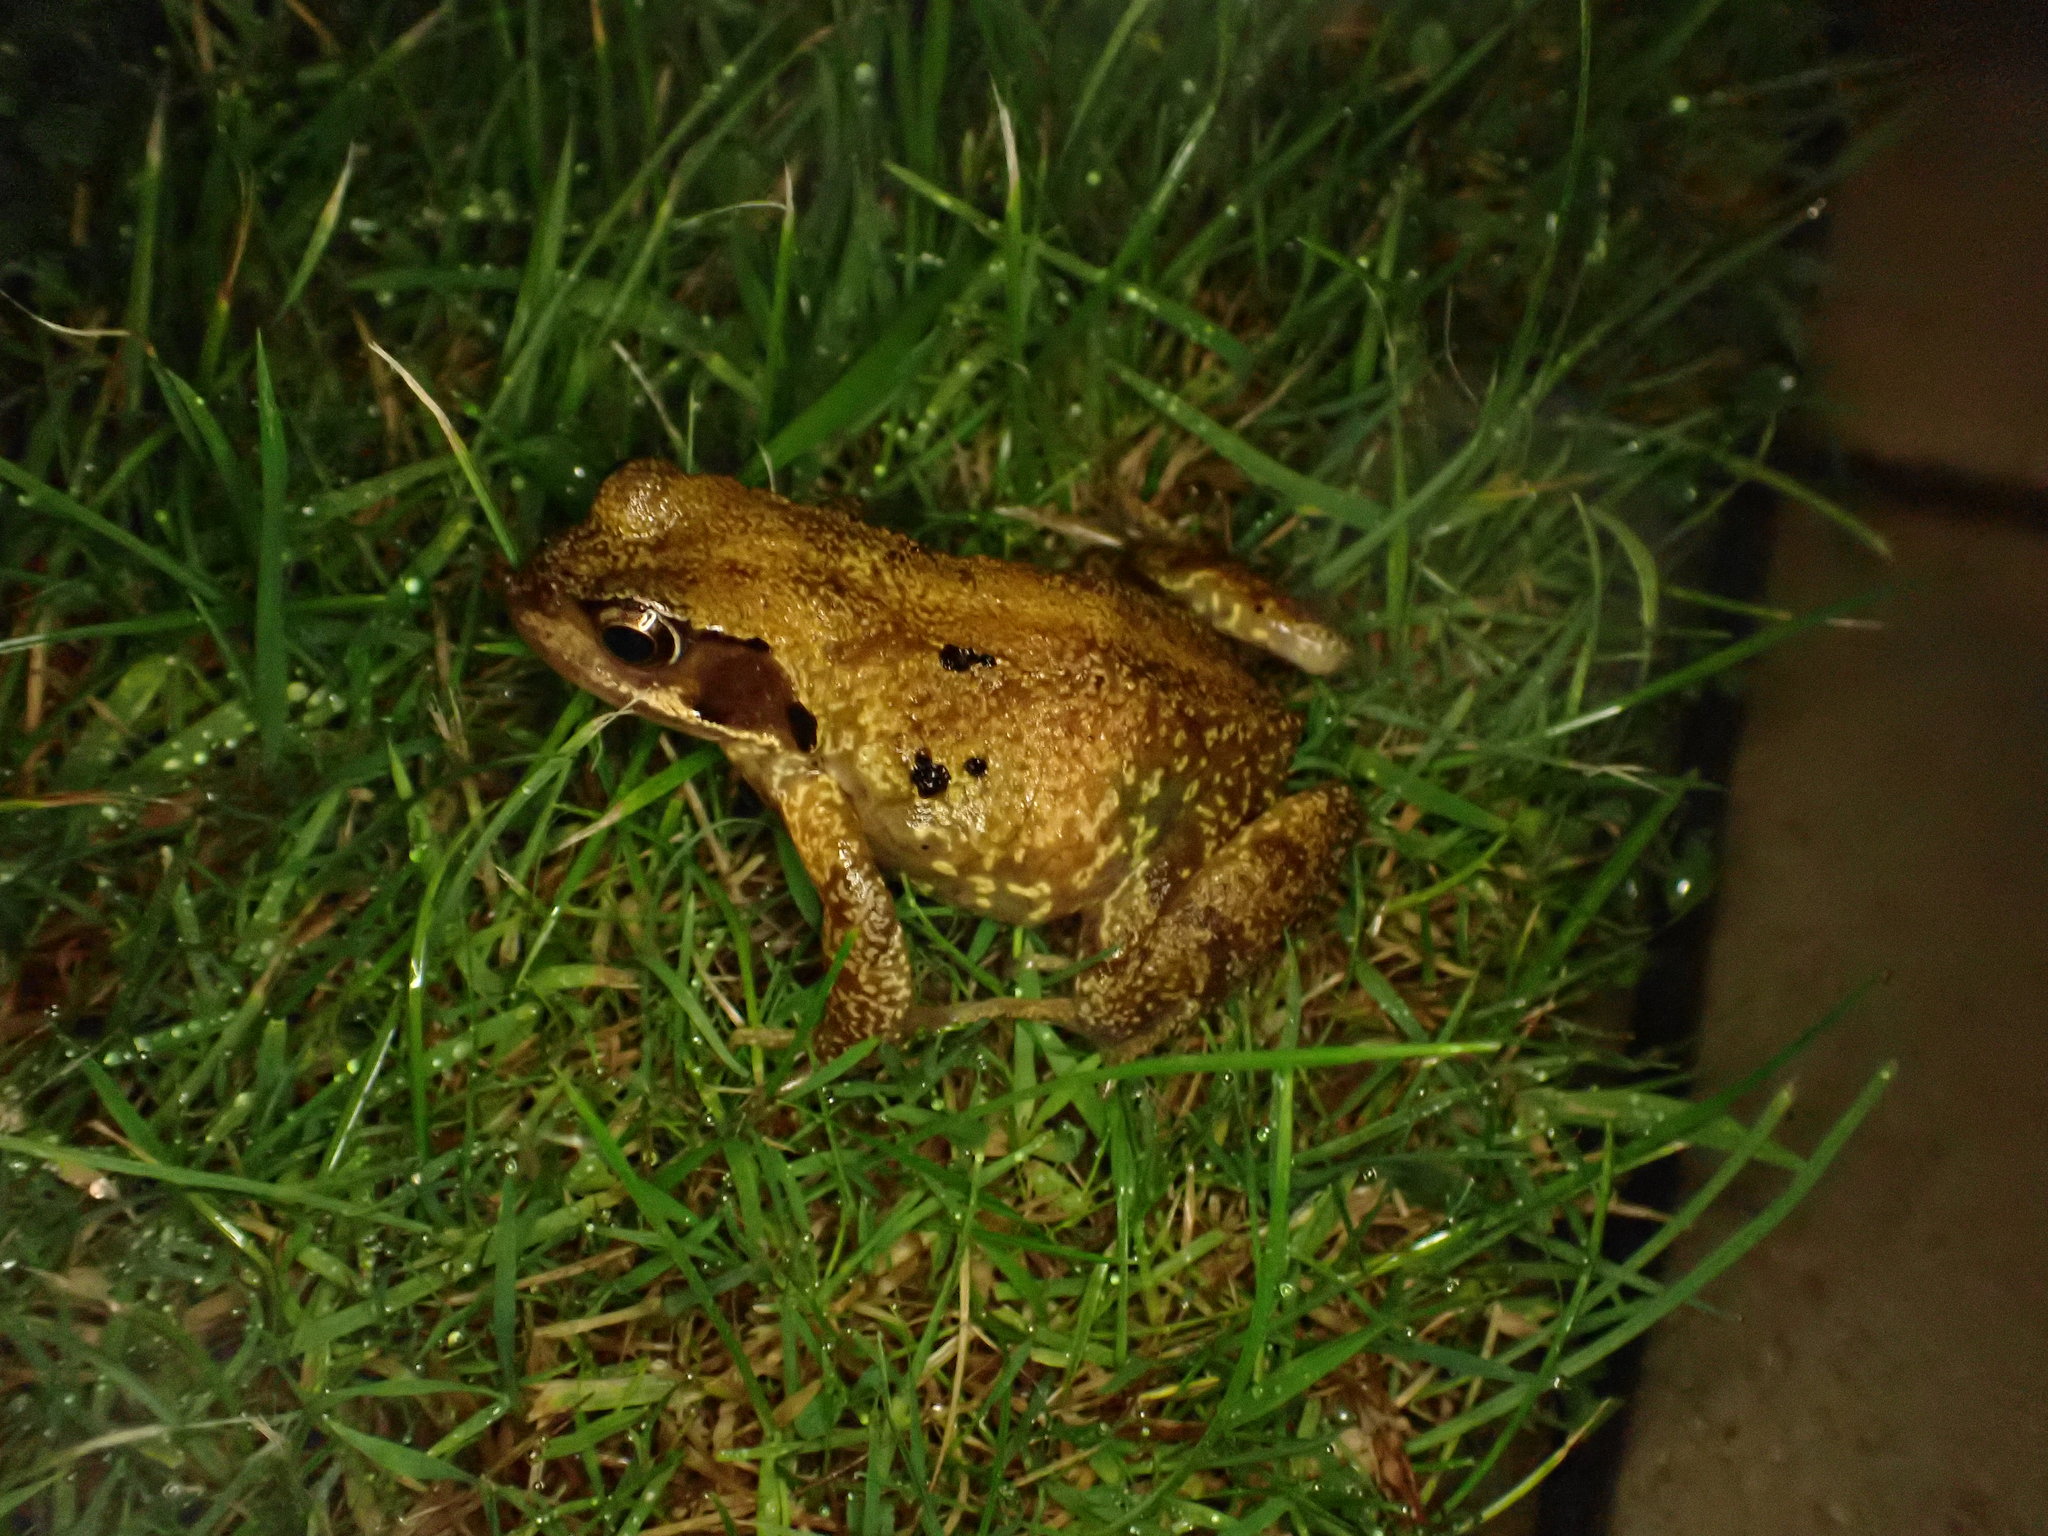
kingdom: Animalia
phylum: Chordata
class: Amphibia
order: Anura
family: Ranidae
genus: Rana
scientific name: Rana temporaria
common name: Common frog
